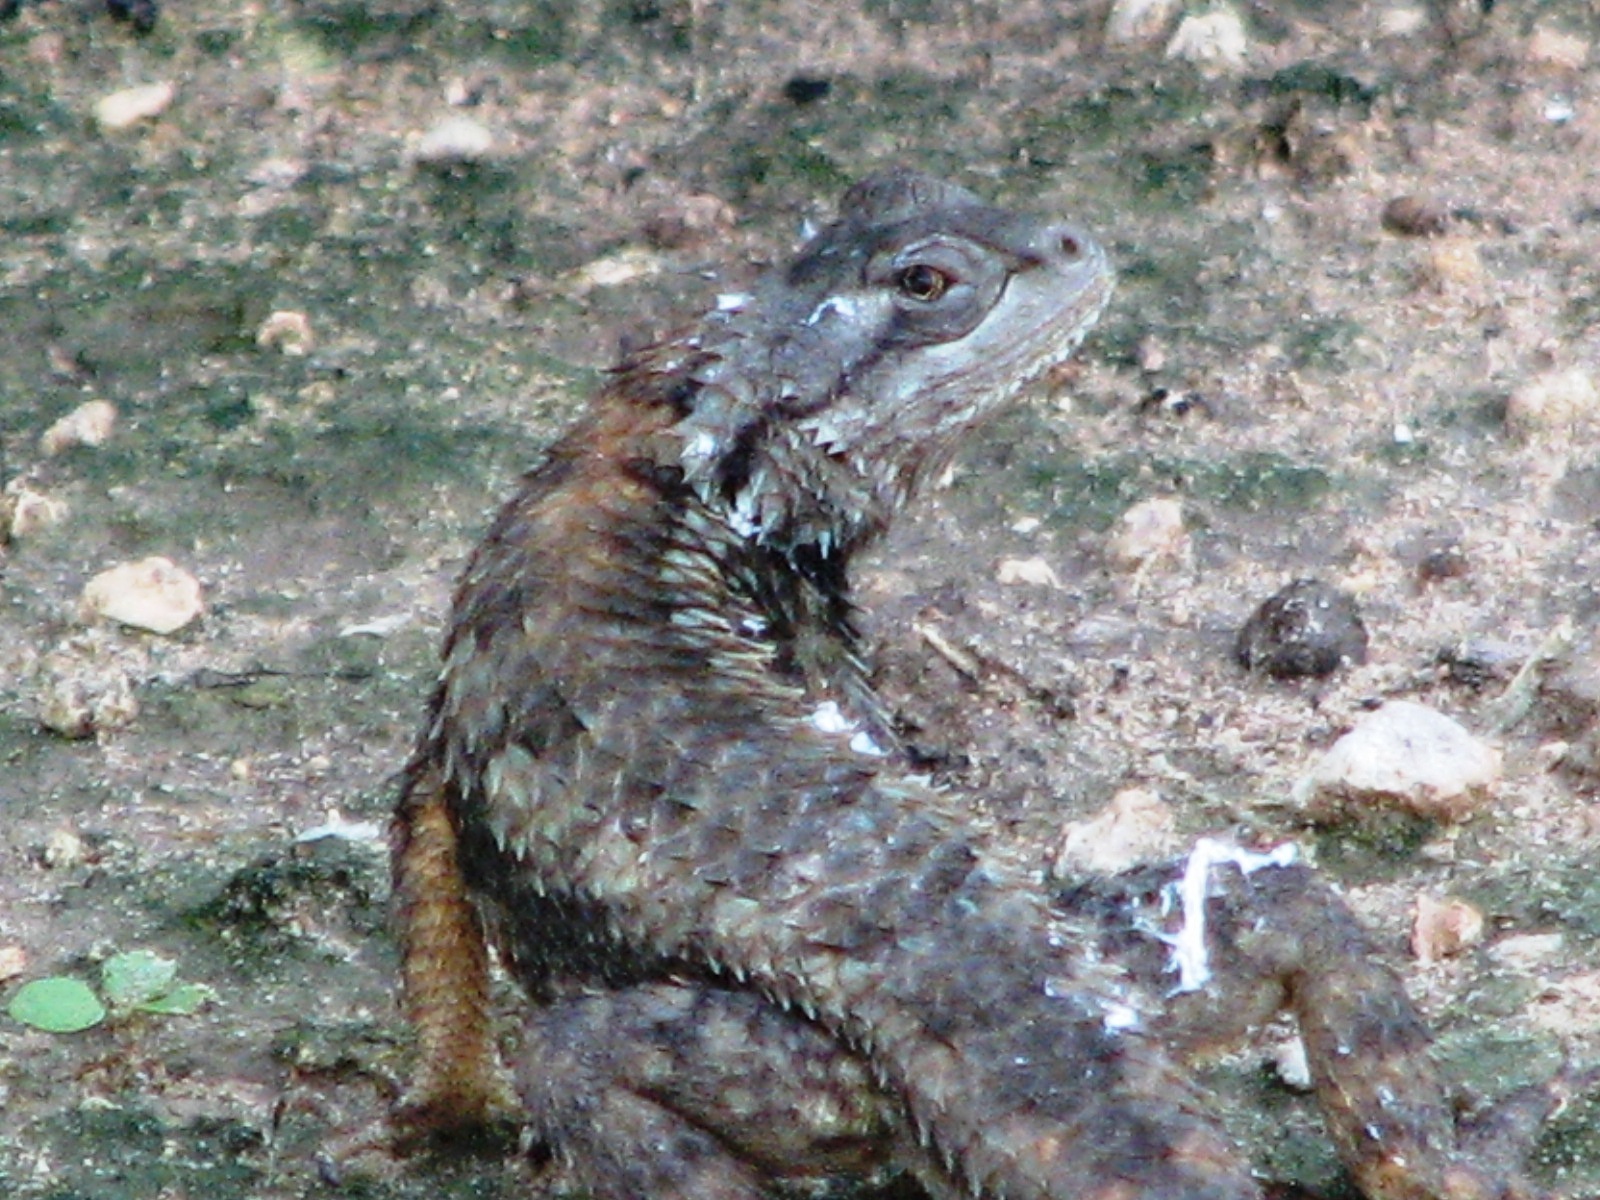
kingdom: Animalia
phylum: Chordata
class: Squamata
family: Phrynosomatidae
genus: Sceloporus
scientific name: Sceloporus olivaceus
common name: Texas spiny lizard
